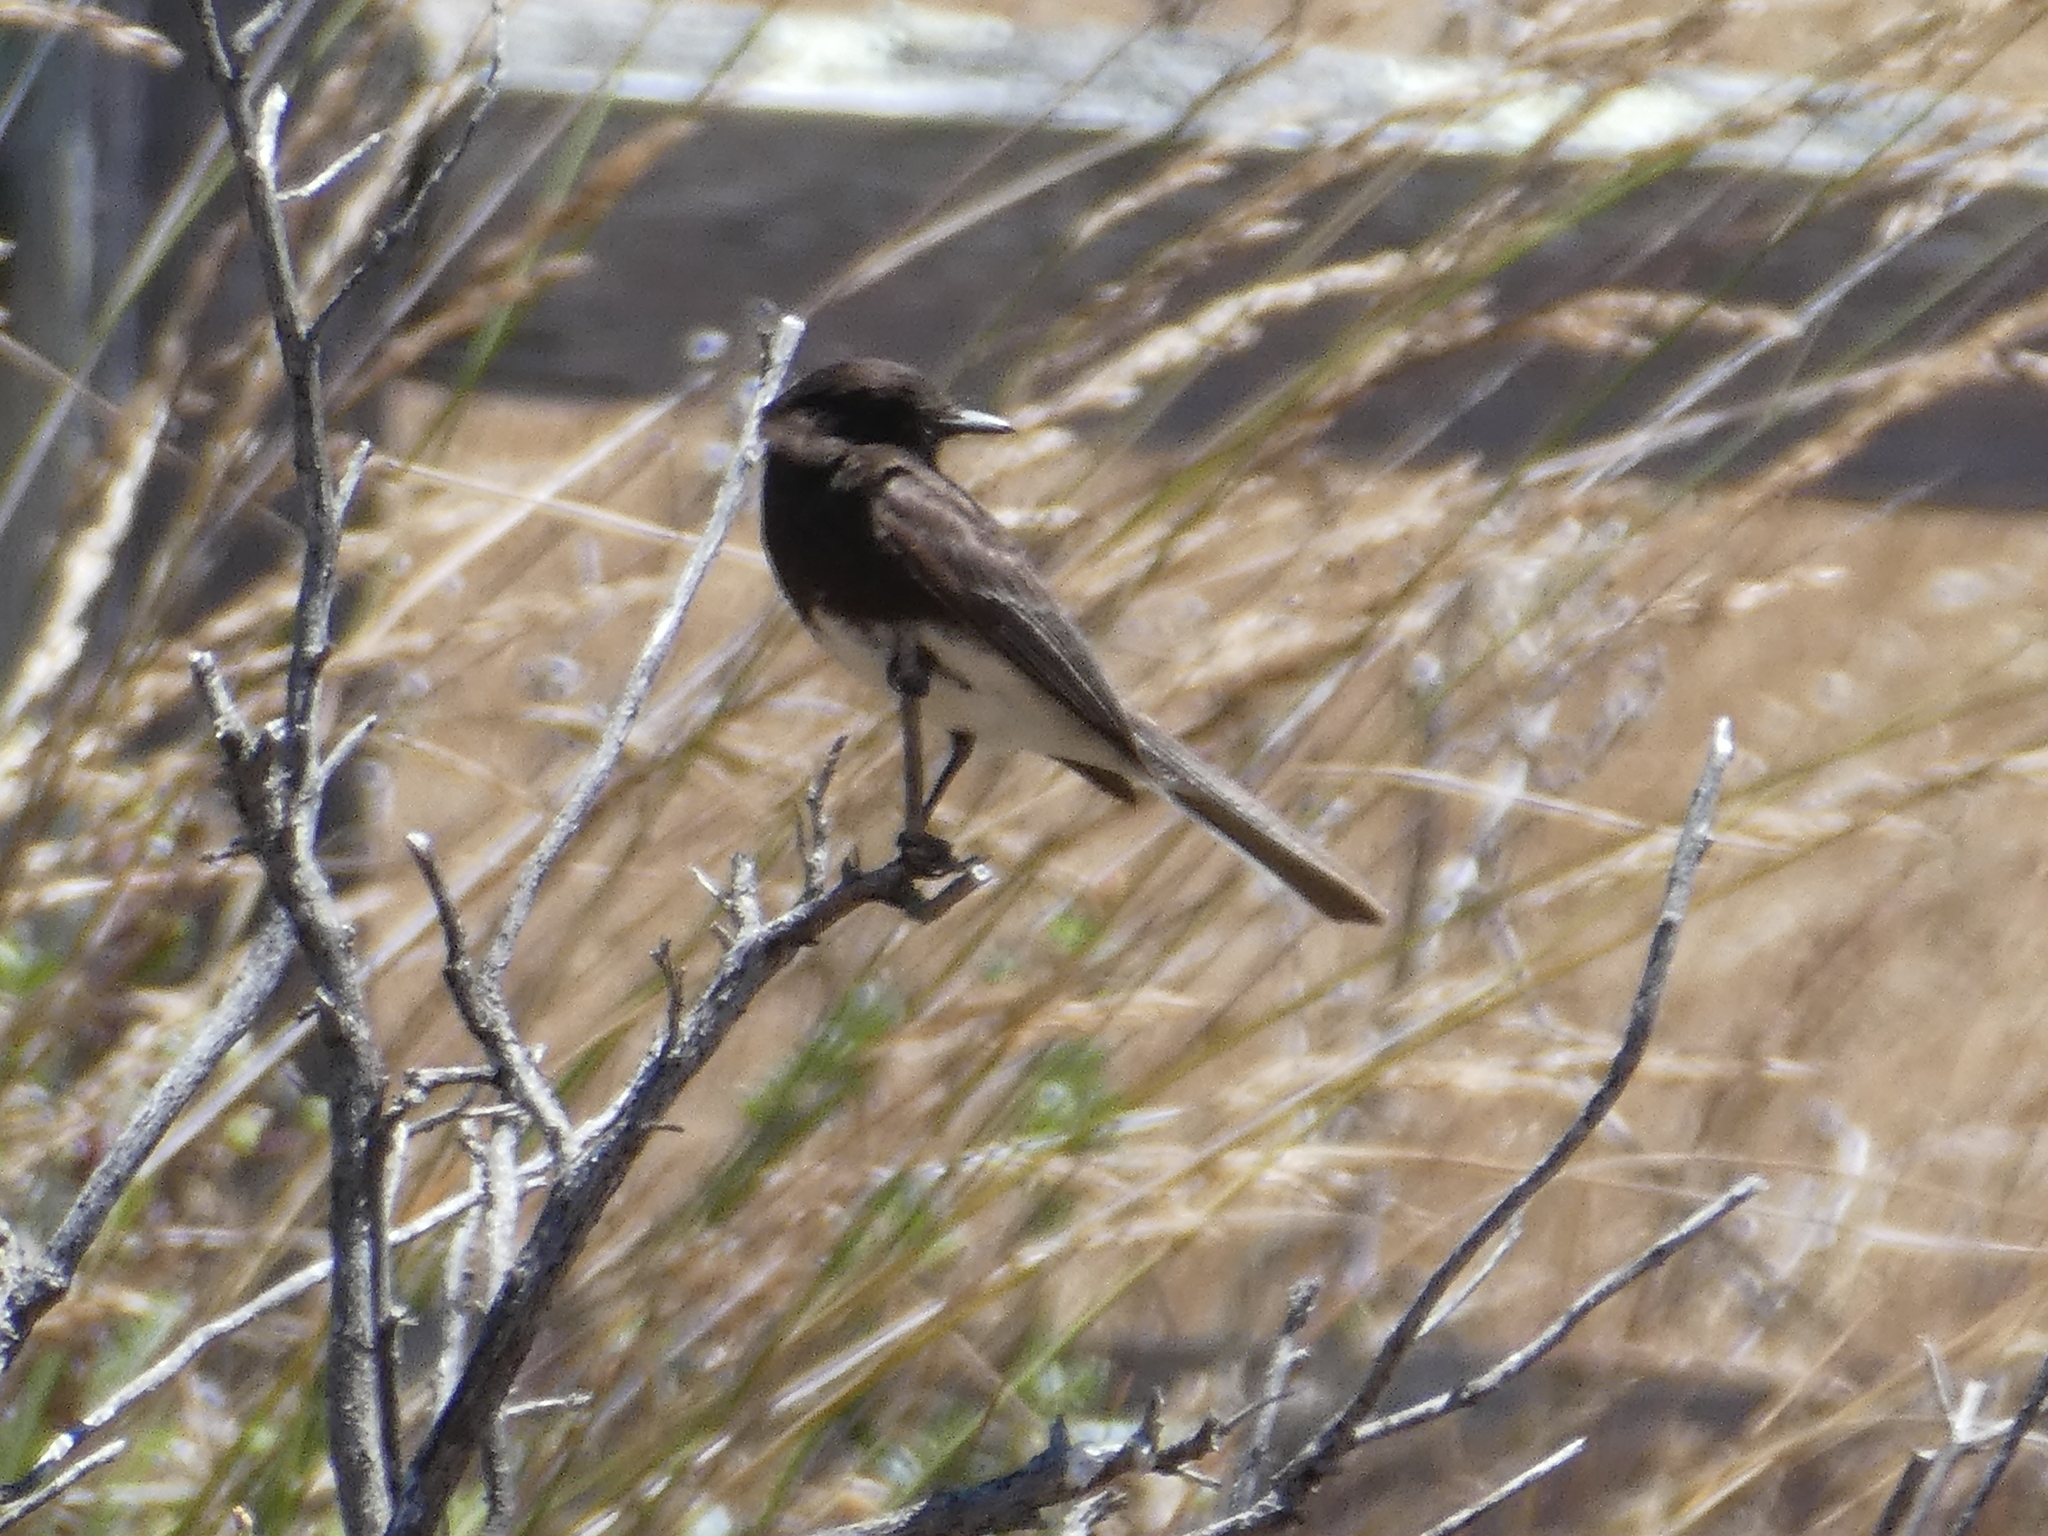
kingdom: Animalia
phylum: Chordata
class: Aves
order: Passeriformes
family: Tyrannidae
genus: Sayornis
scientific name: Sayornis nigricans
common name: Black phoebe
